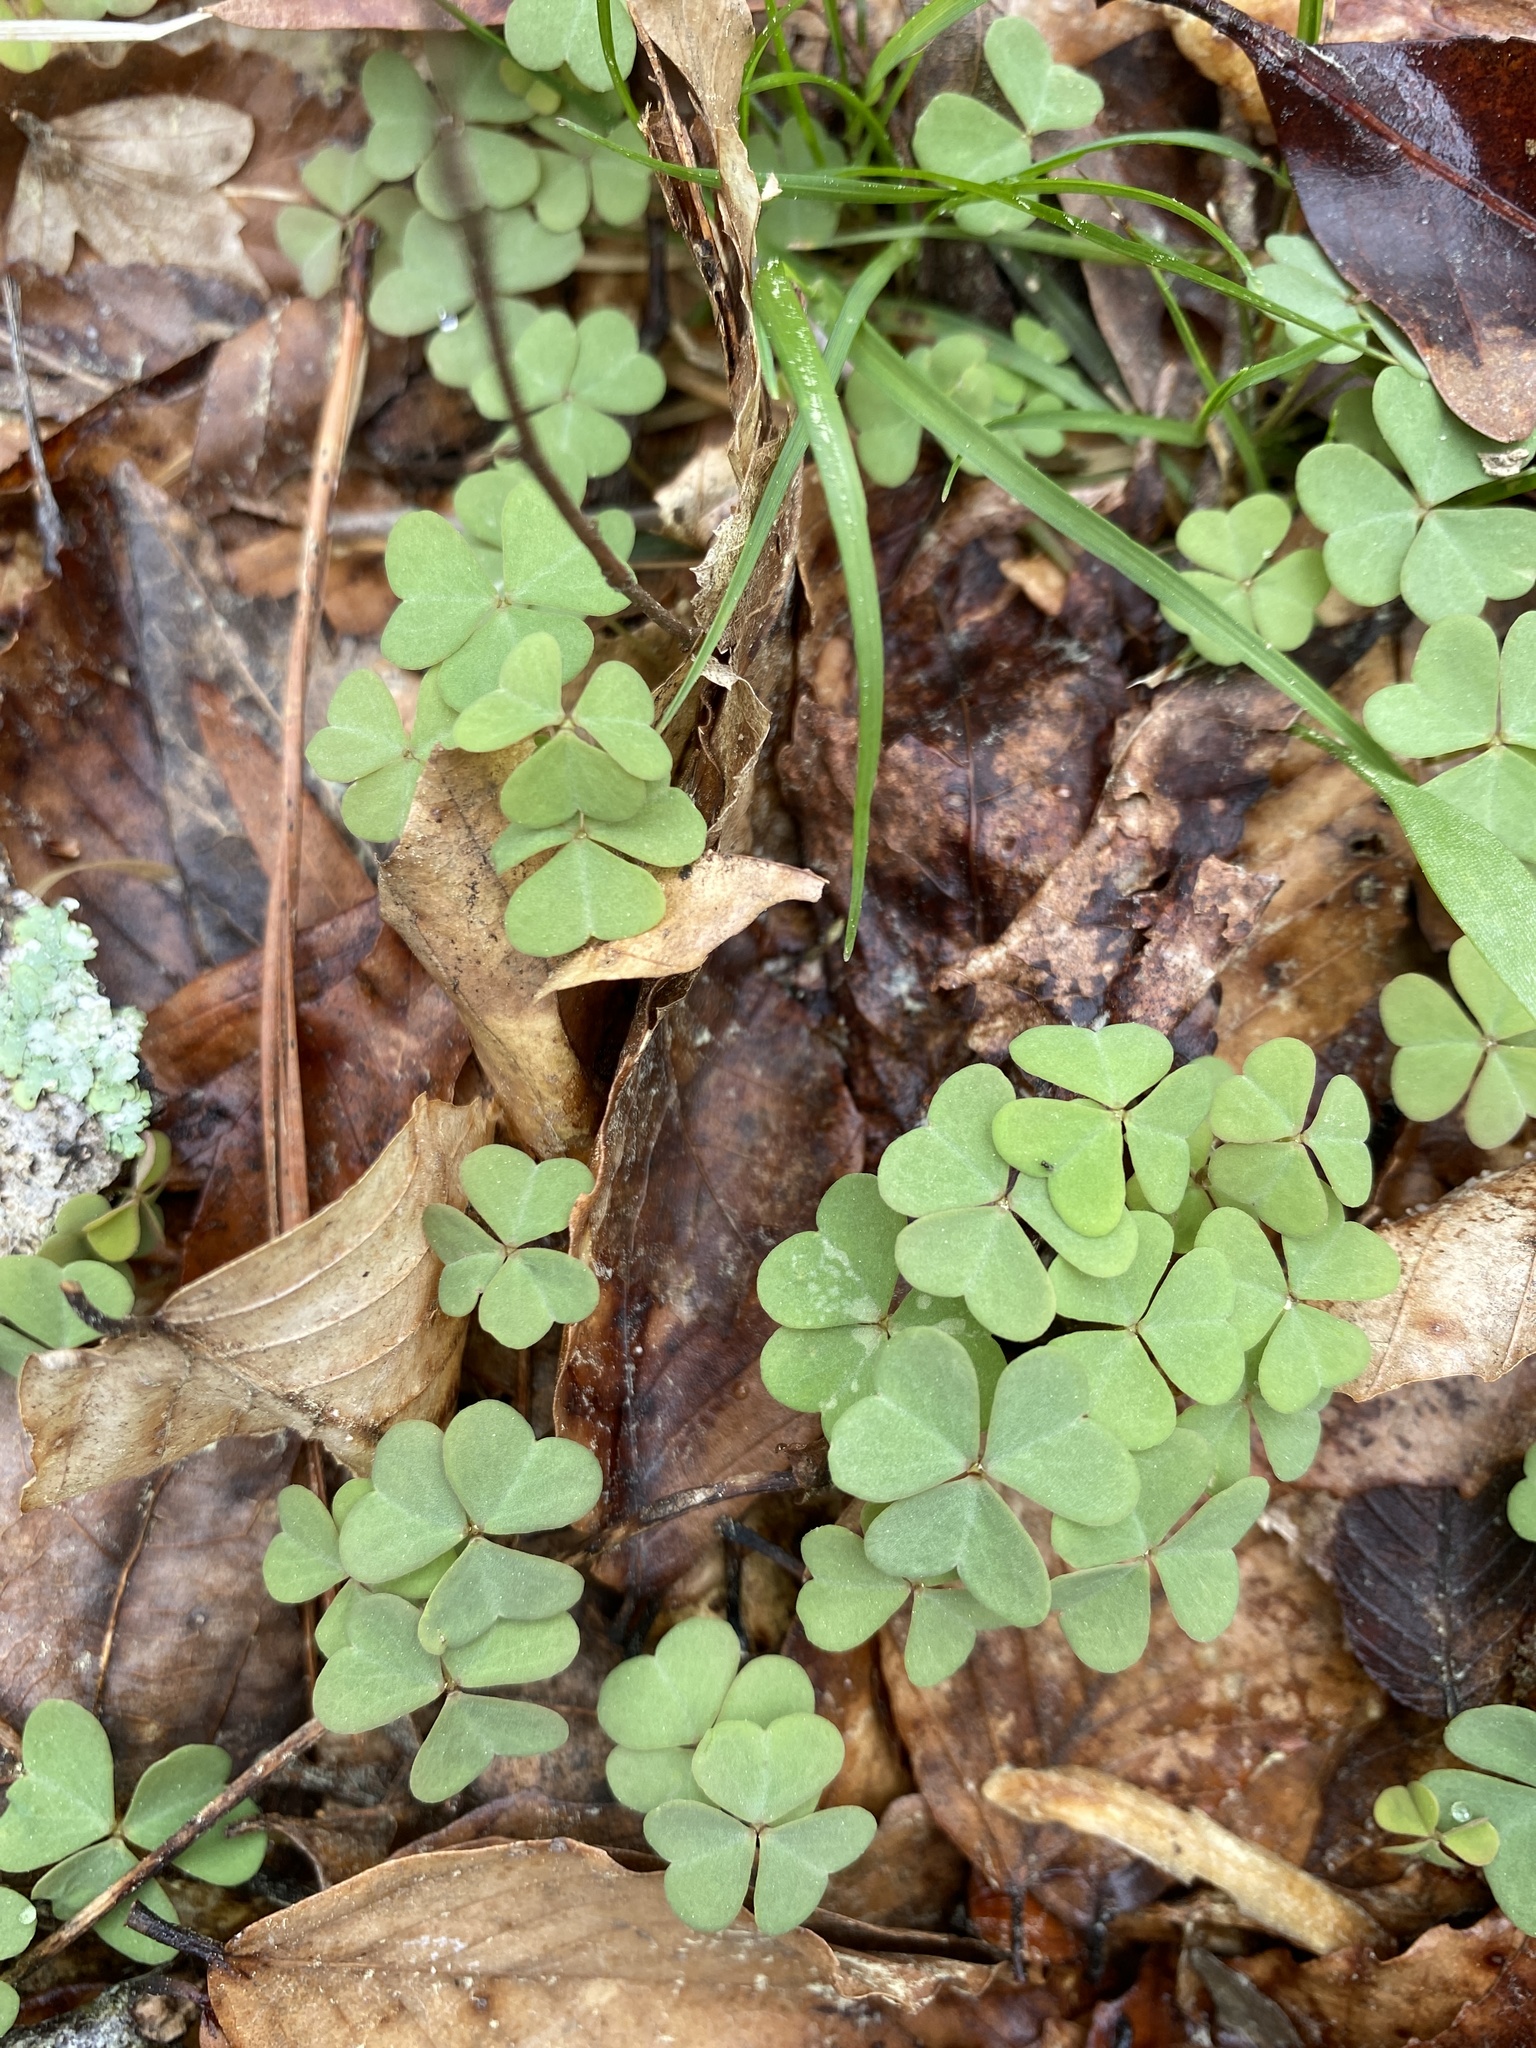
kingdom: Plantae
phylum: Tracheophyta
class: Magnoliopsida
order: Oxalidales
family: Oxalidaceae
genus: Oxalis
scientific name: Oxalis violacea
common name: Violet wood-sorrel
